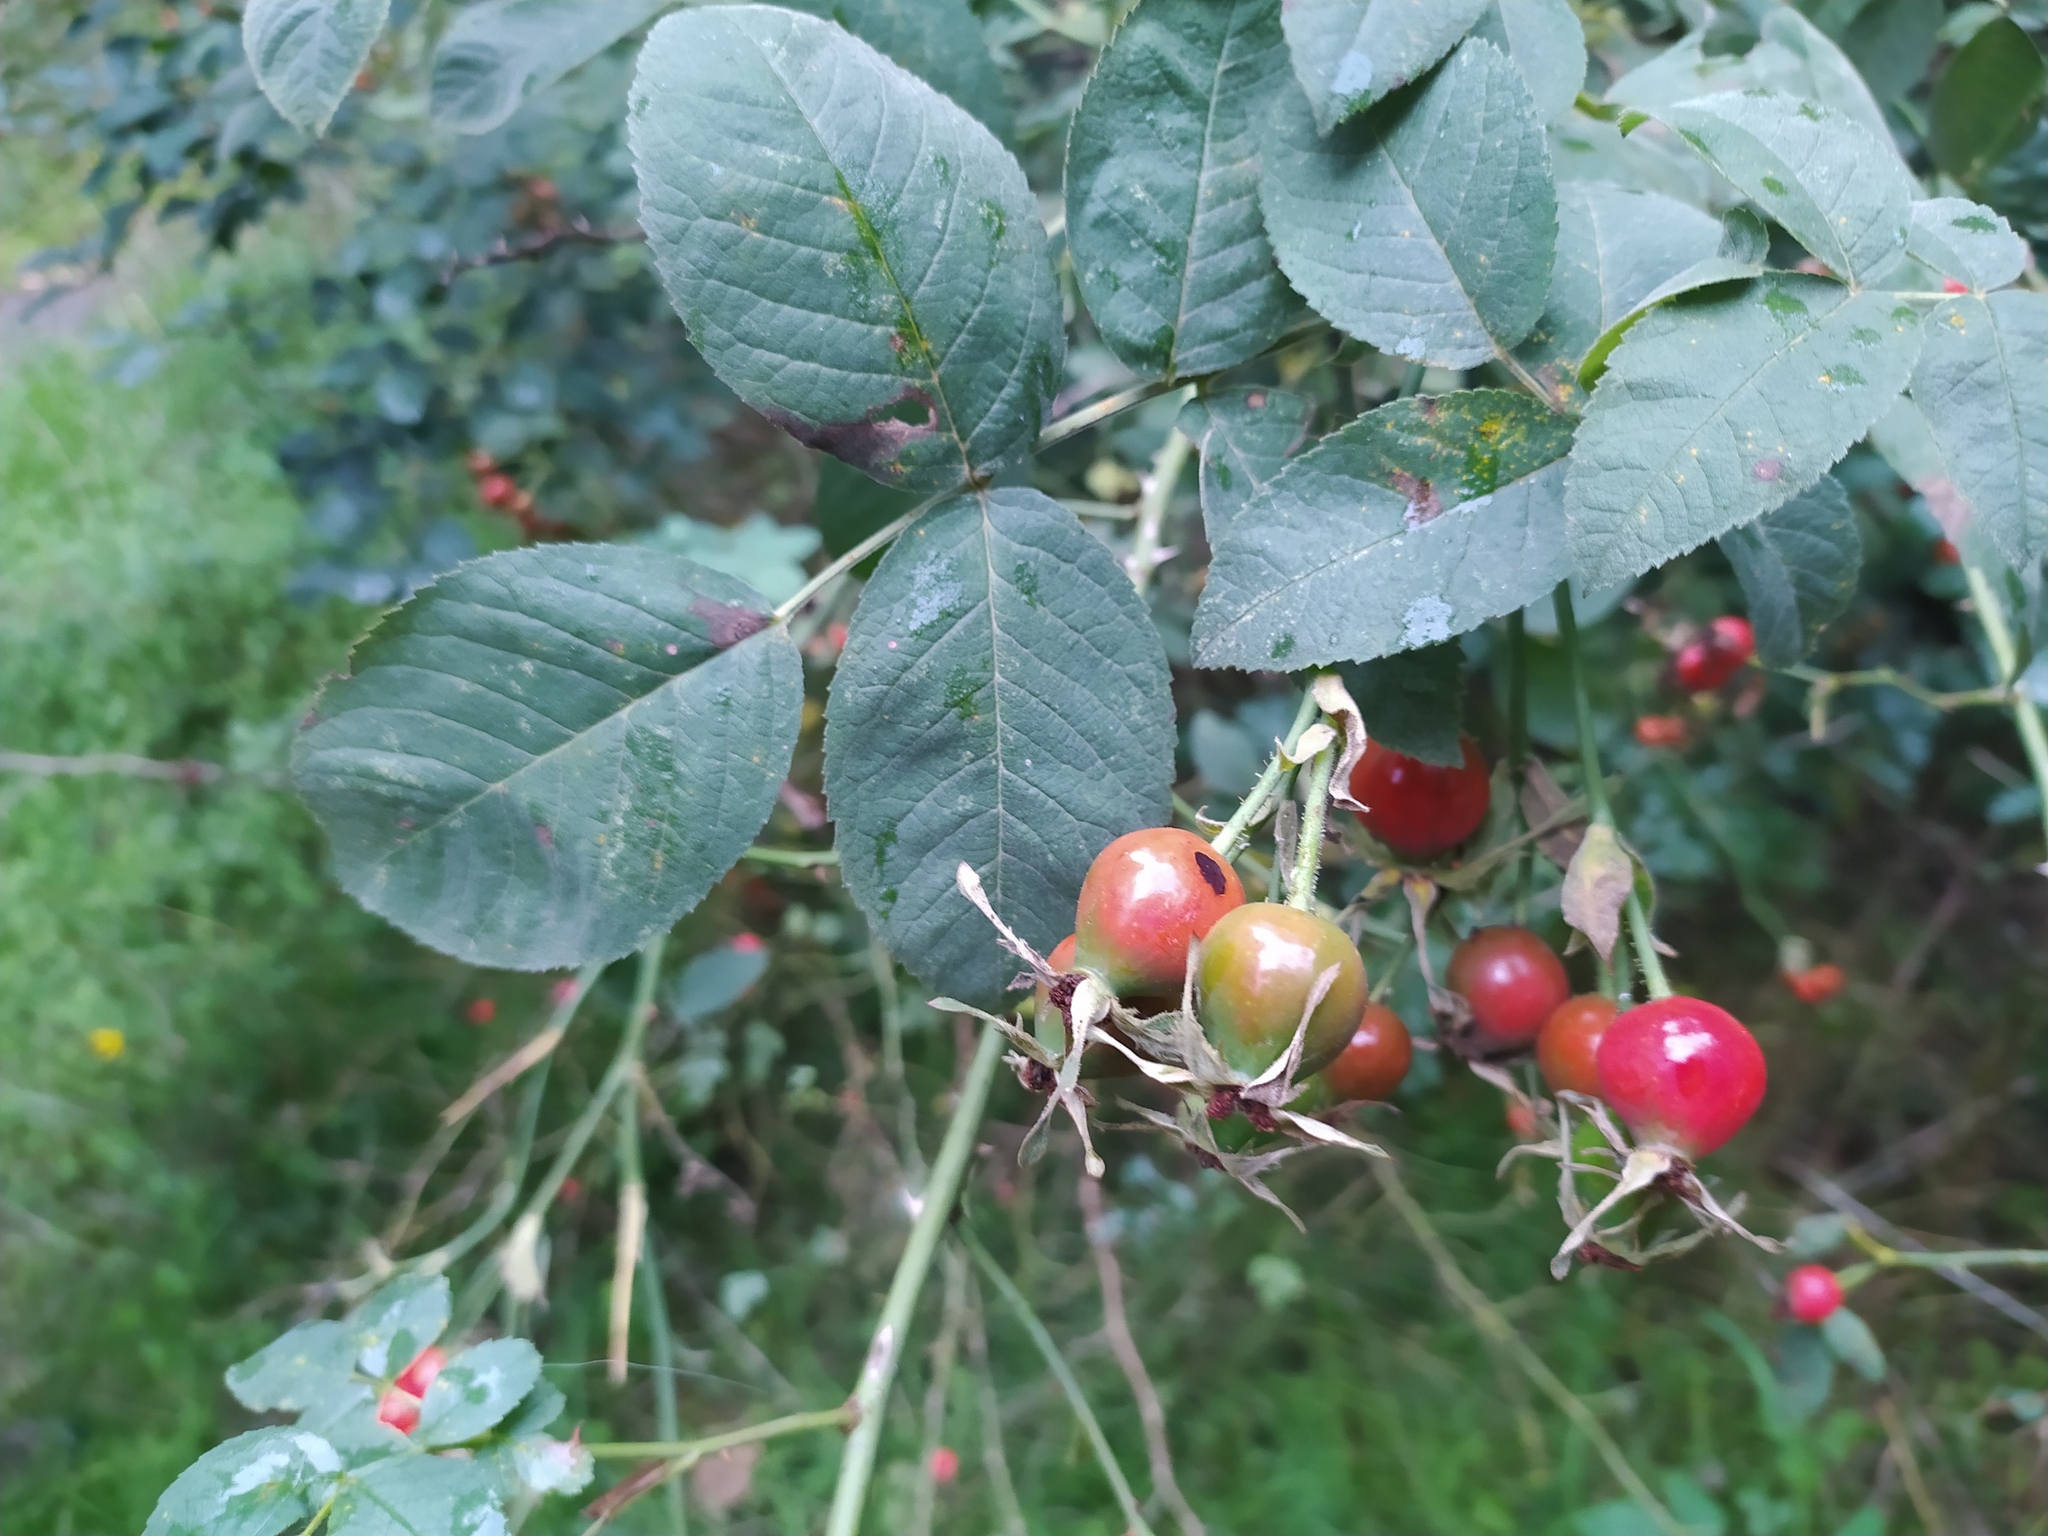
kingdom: Plantae
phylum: Tracheophyta
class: Magnoliopsida
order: Rosales
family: Rosaceae
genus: Rosa
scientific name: Rosa tomentosa
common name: Downy rose
